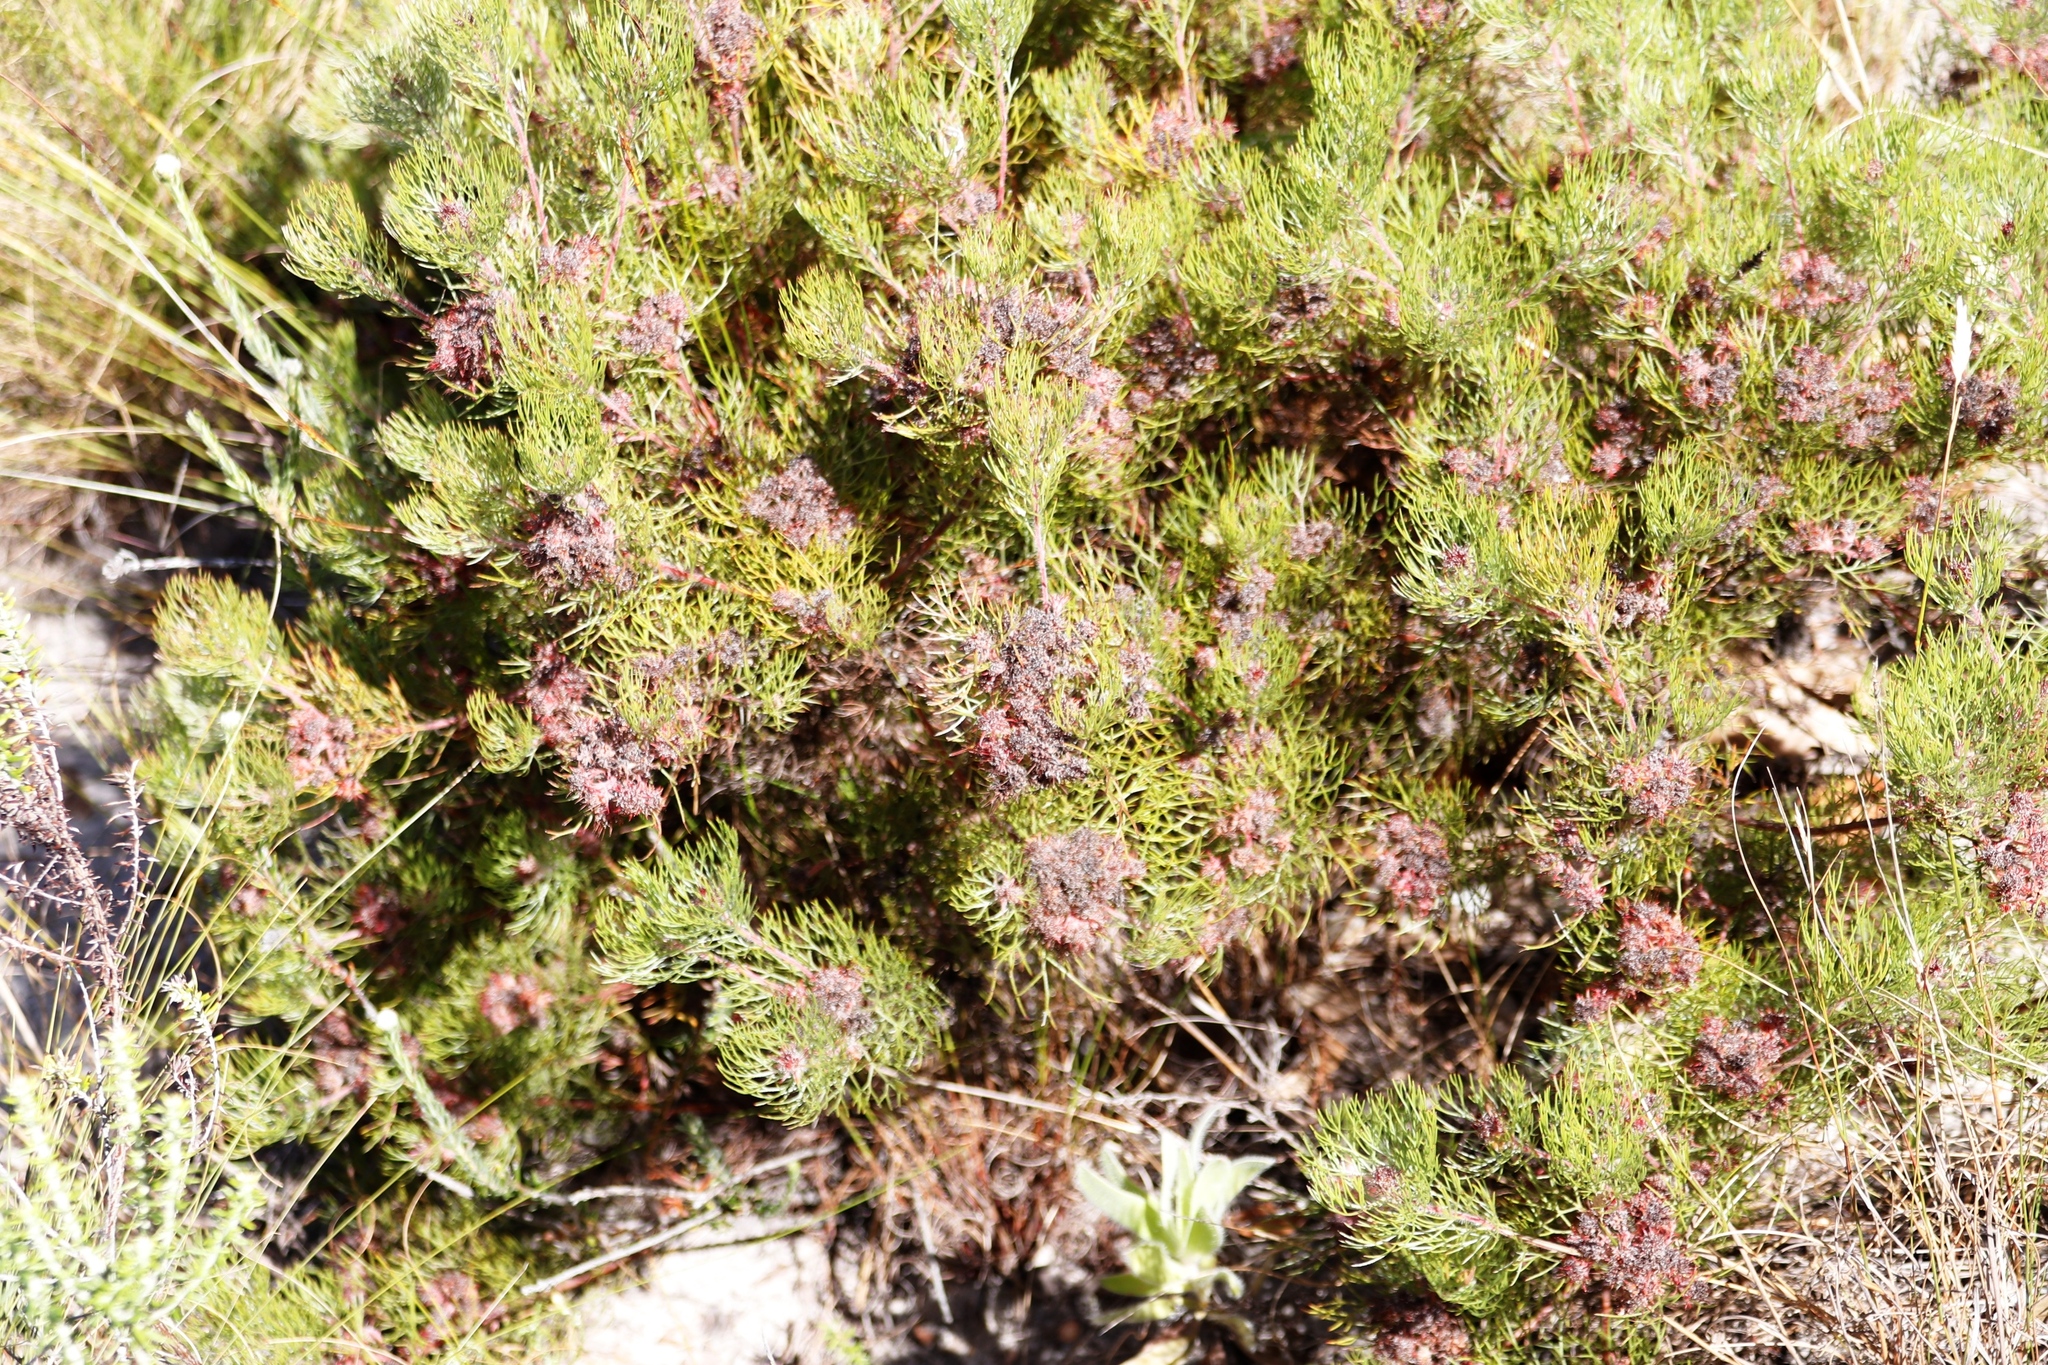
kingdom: Plantae
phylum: Tracheophyta
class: Magnoliopsida
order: Proteales
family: Proteaceae
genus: Serruria
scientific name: Serruria fasciflora
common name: Common pin spiderhead
